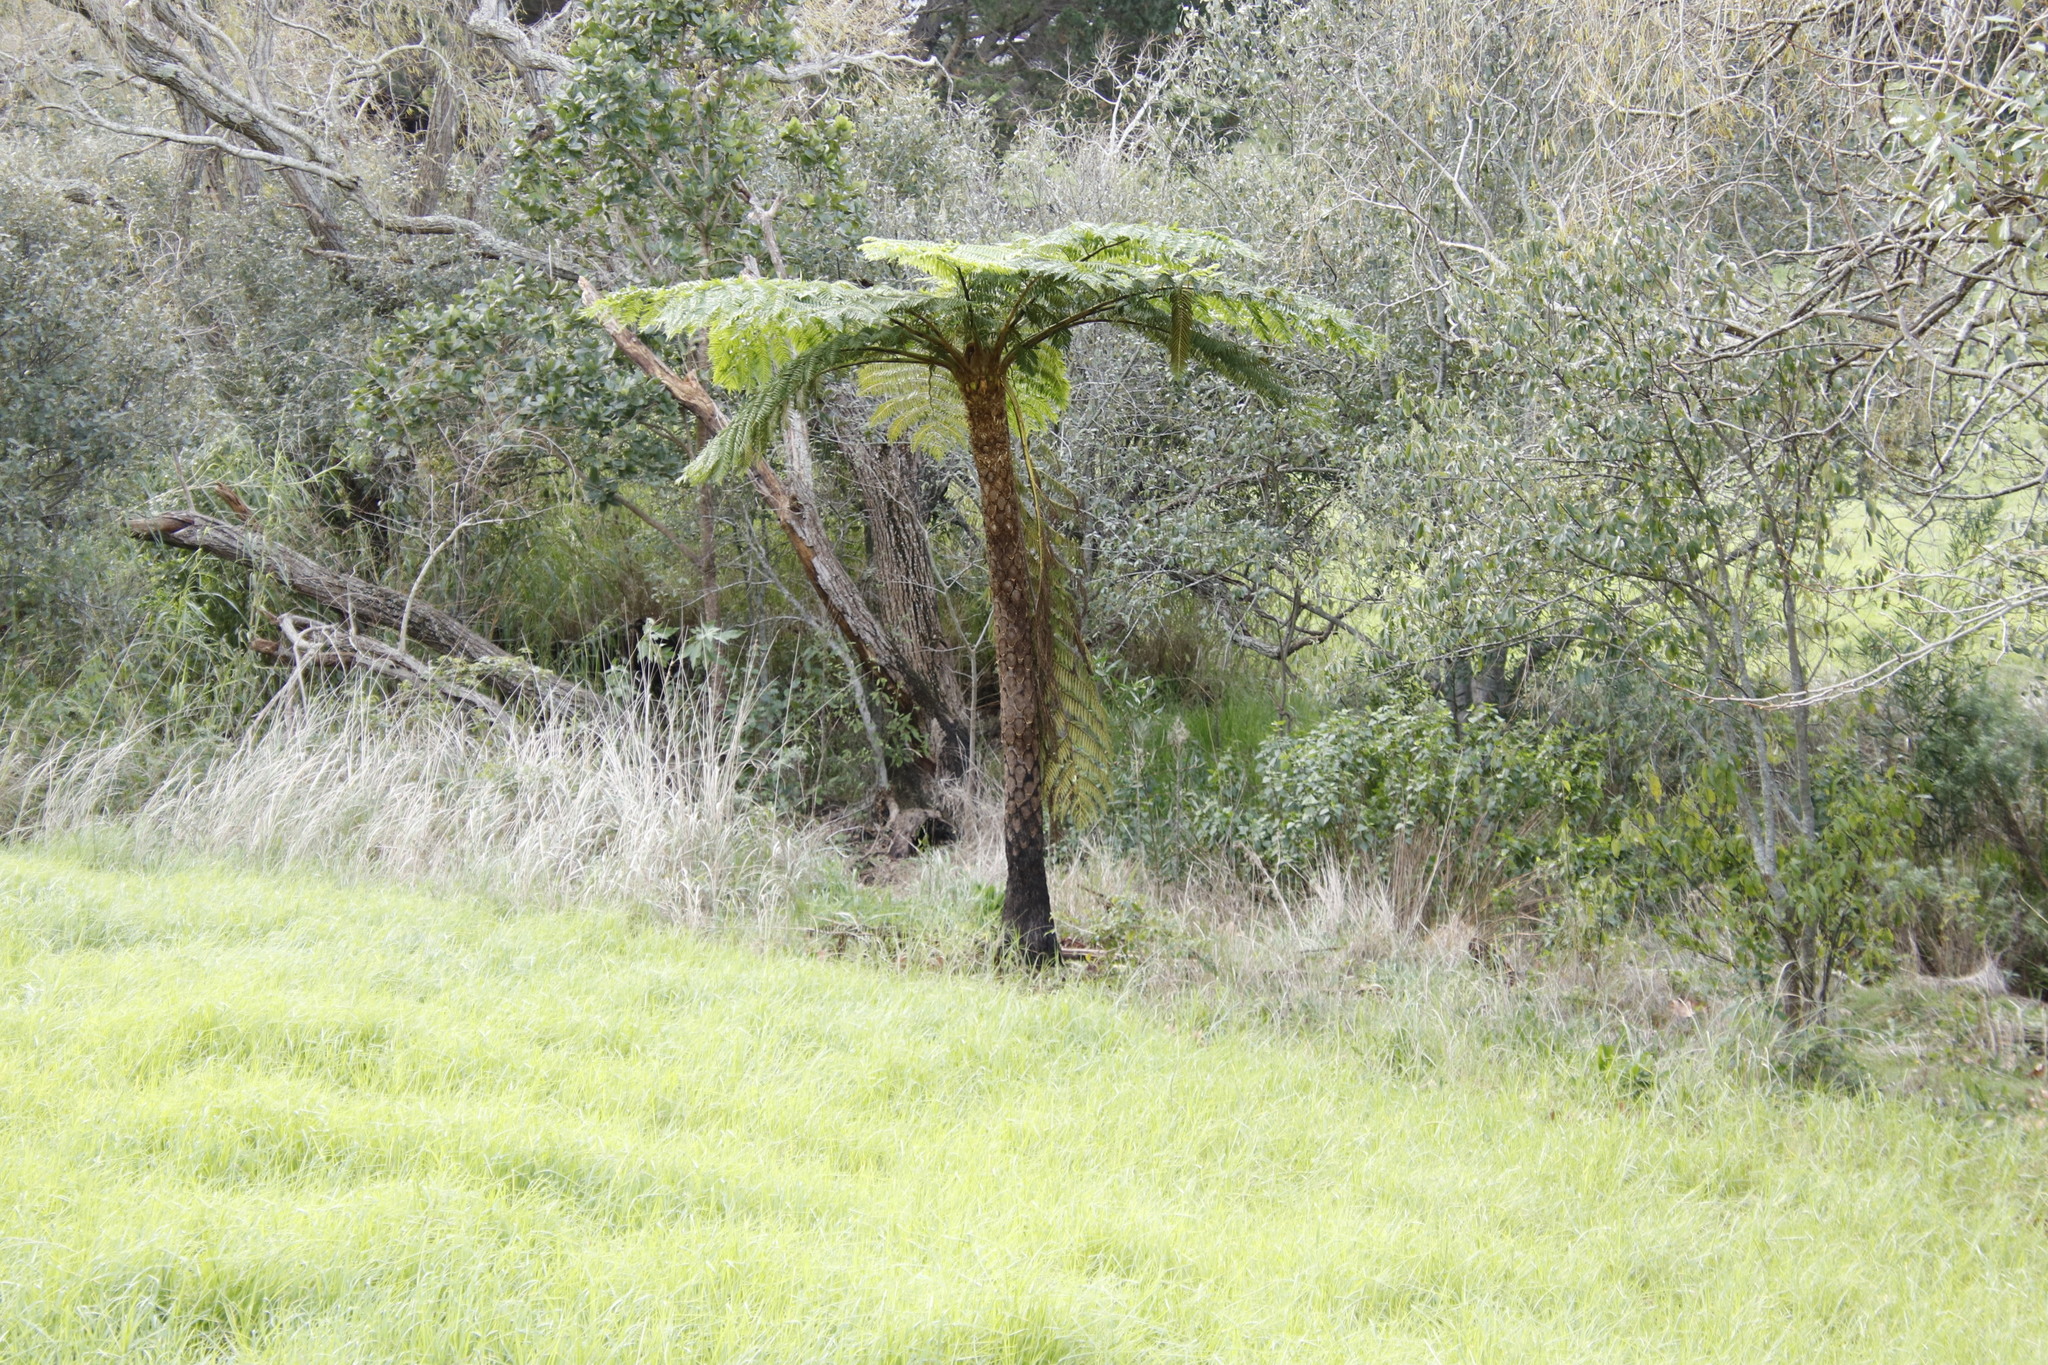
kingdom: Plantae
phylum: Tracheophyta
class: Polypodiopsida
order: Cyatheales
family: Cyatheaceae
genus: Sphaeropteris
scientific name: Sphaeropteris cooperi
